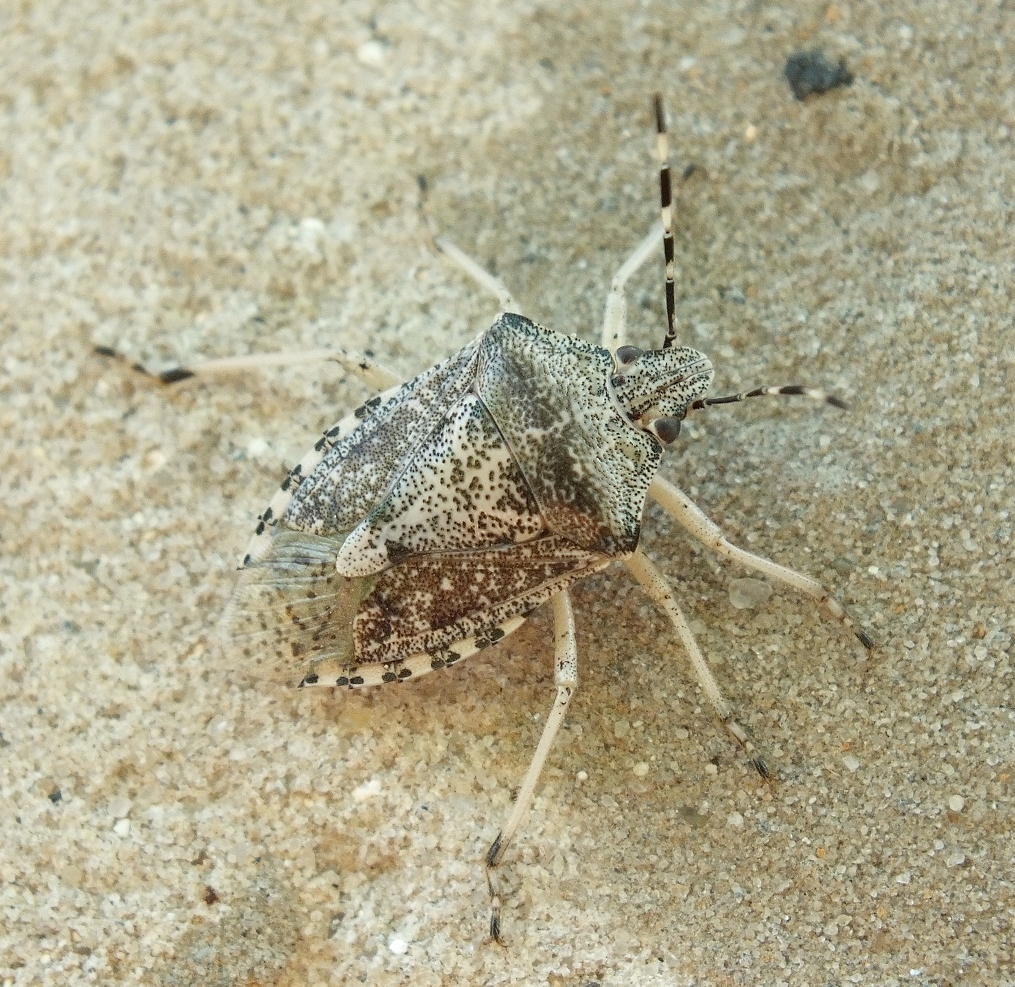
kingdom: Animalia
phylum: Arthropoda
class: Insecta
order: Hemiptera
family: Pentatomidae
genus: Rhaphigaster
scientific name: Rhaphigaster nebulosa
